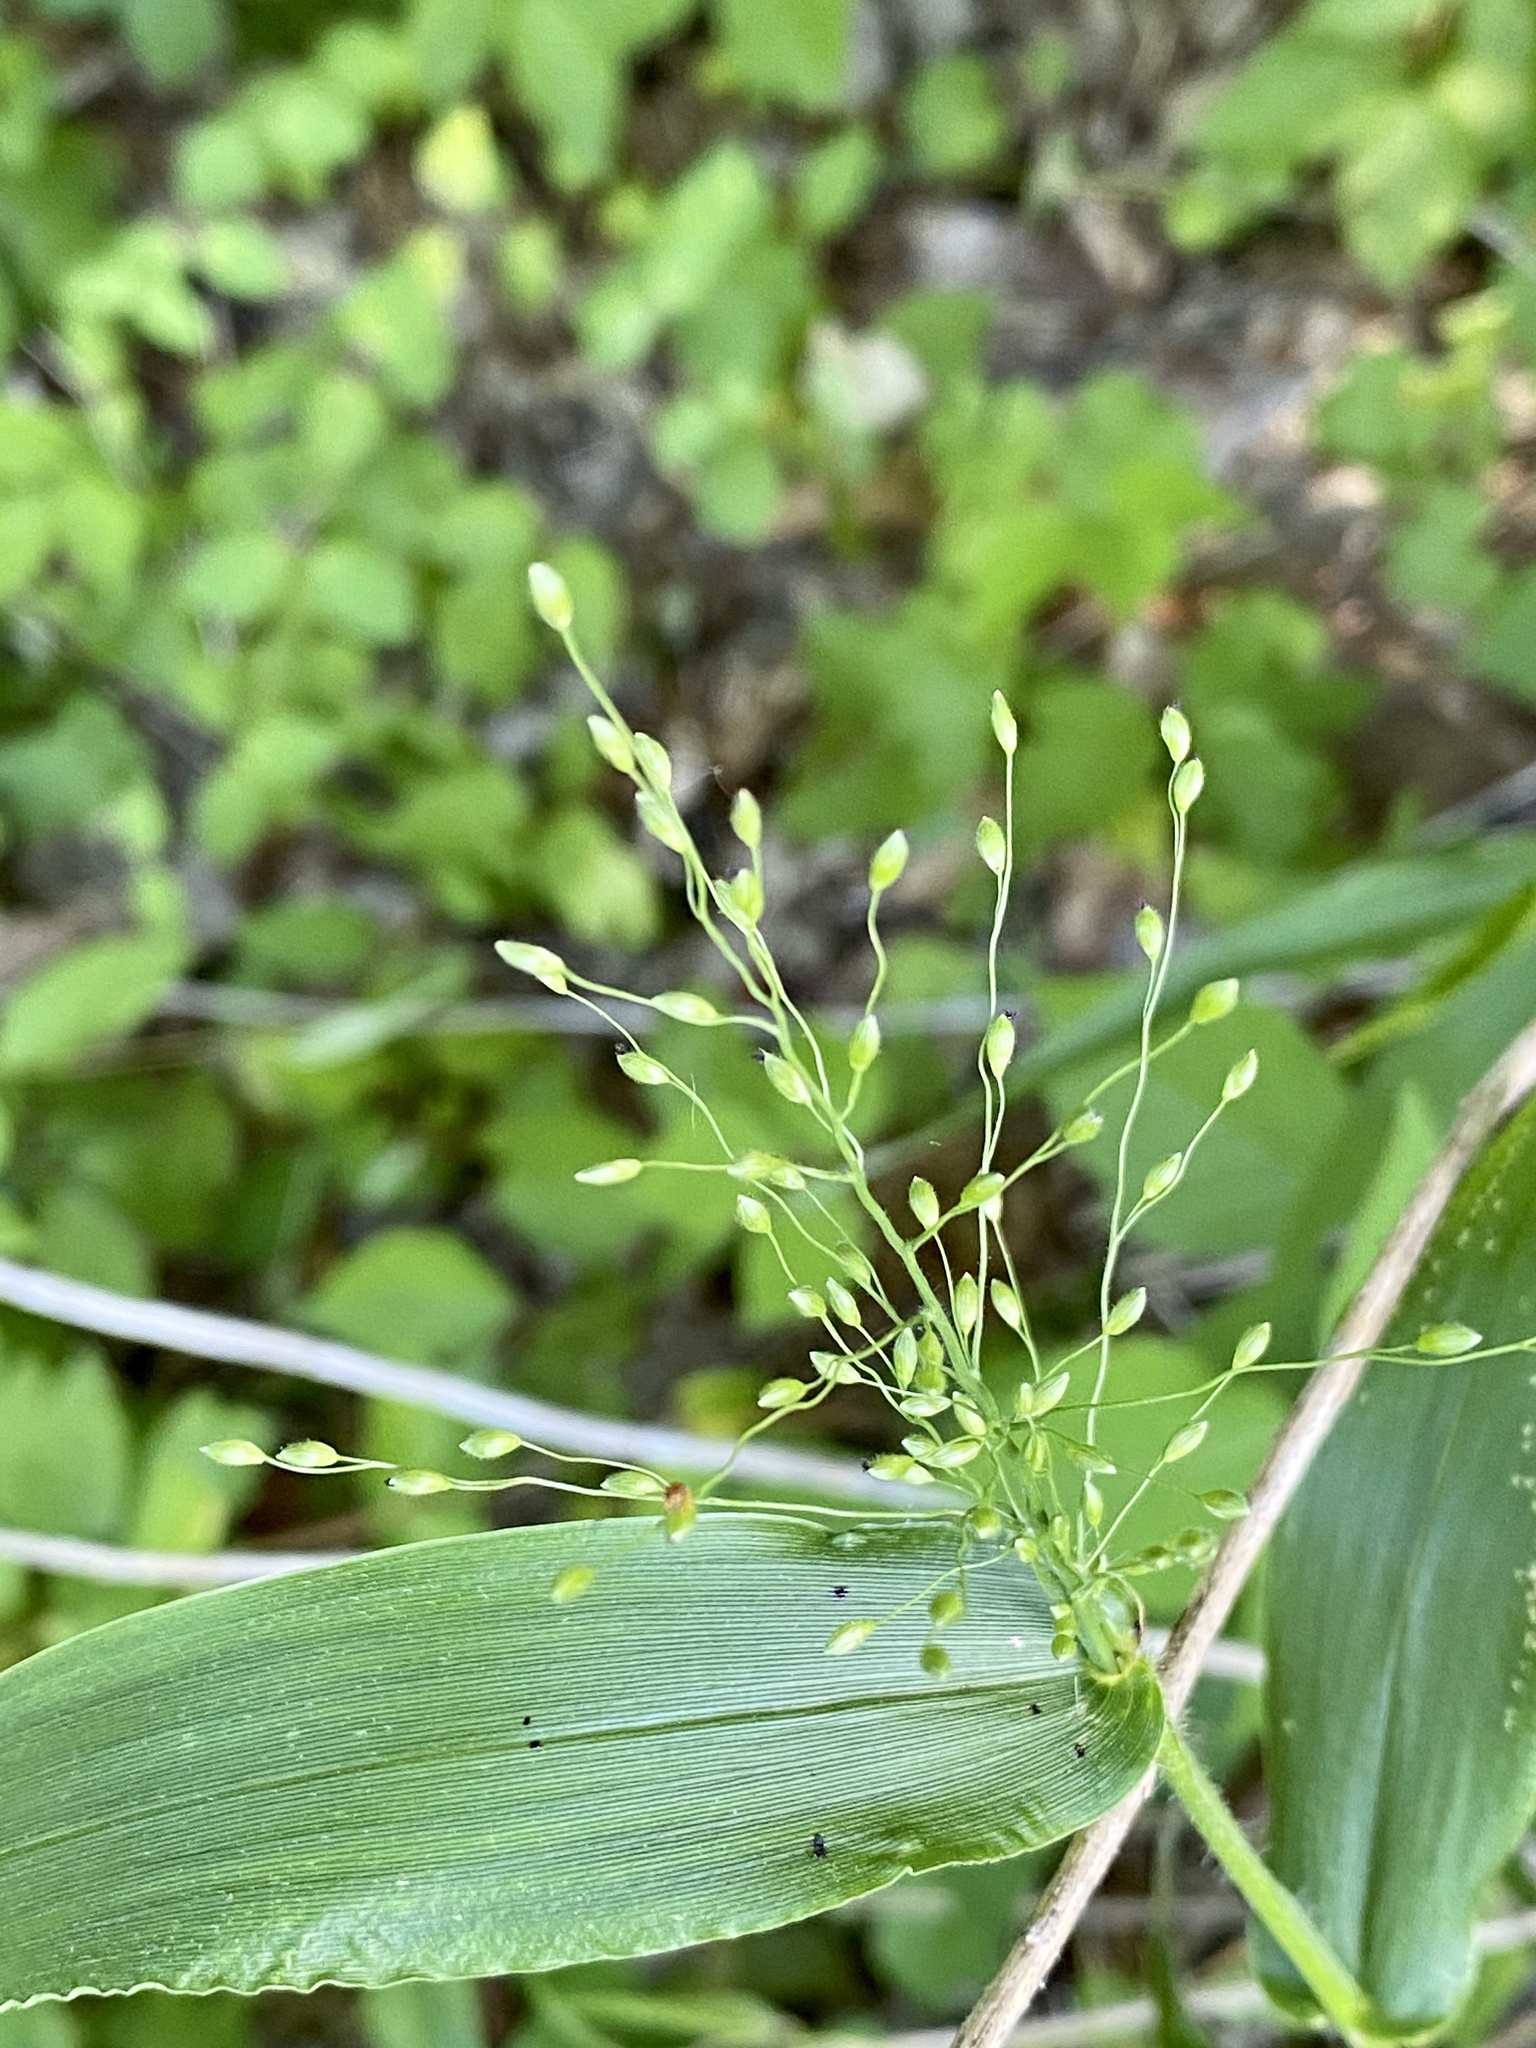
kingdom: Plantae
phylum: Tracheophyta
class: Liliopsida
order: Poales
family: Poaceae
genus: Dichanthelium
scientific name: Dichanthelium clandestinum
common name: Deer-tongue grass
